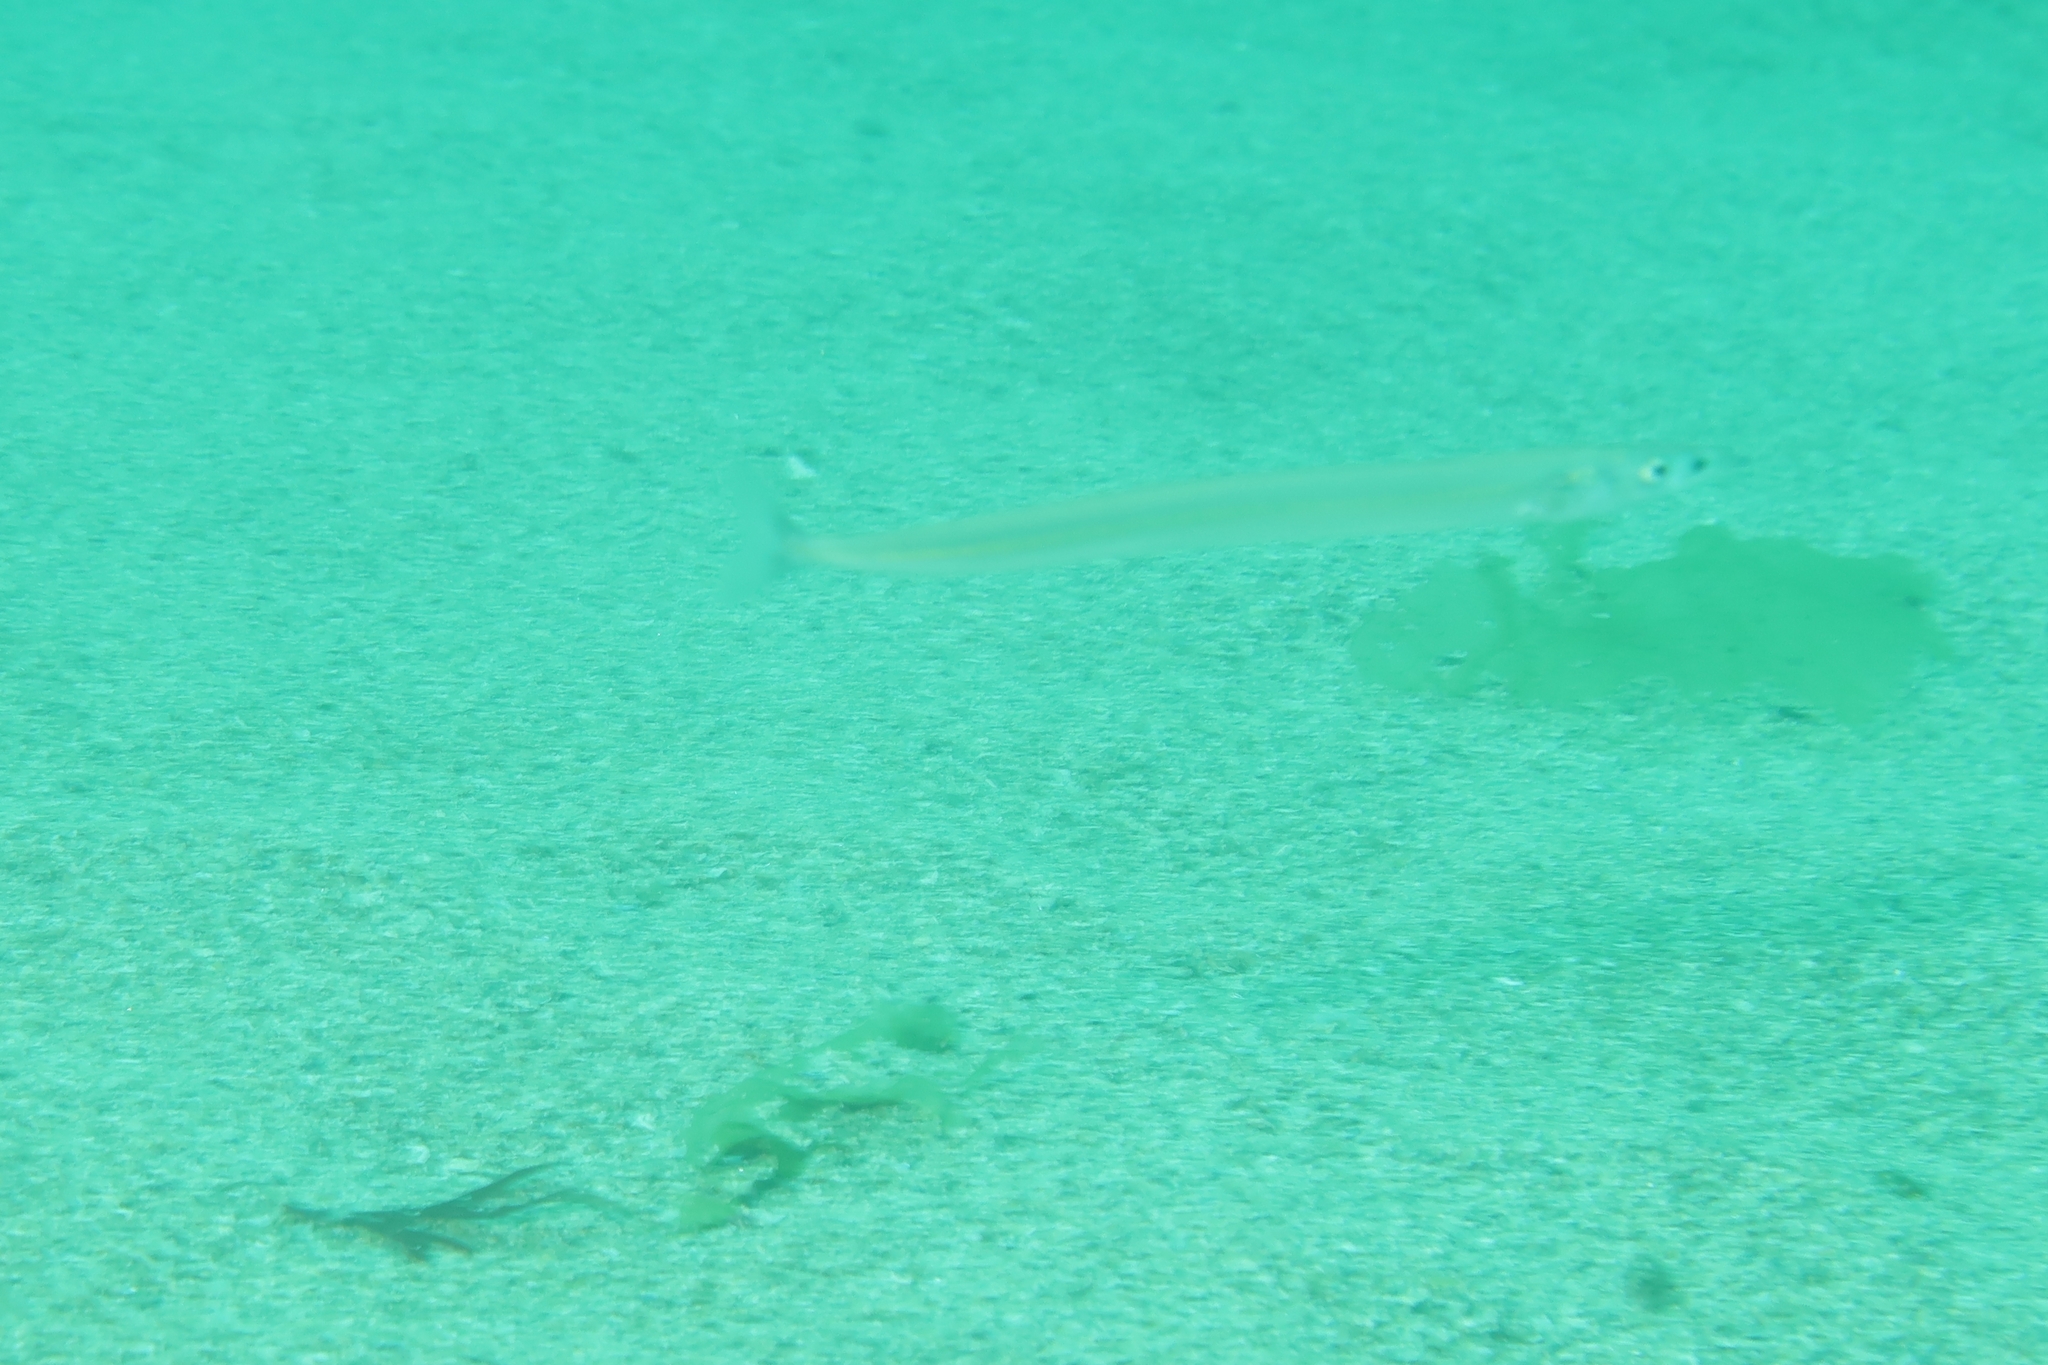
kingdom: Animalia
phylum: Chordata
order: Perciformes
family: Ammodytidae
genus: Hyperoplus
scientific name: Hyperoplus lanceolatus
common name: Greater sandeel
